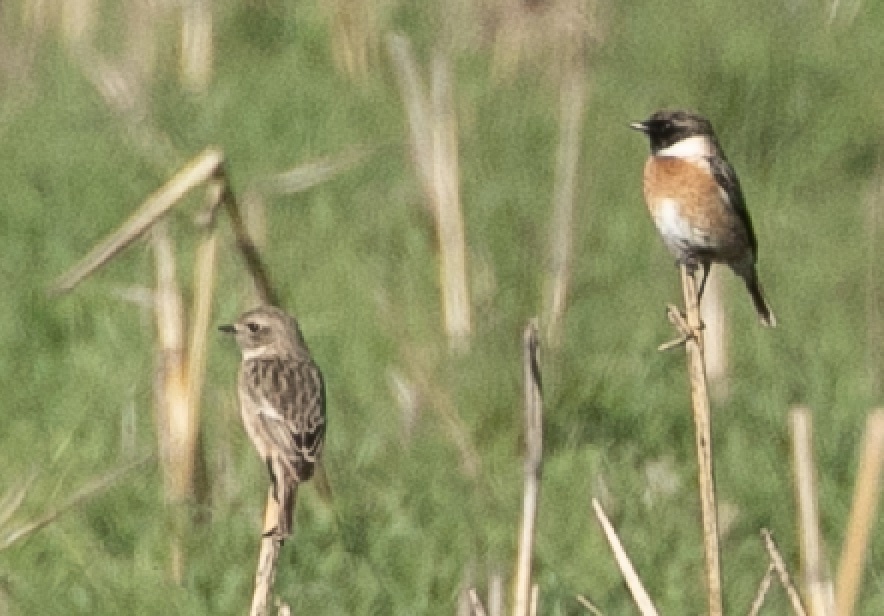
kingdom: Animalia
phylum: Chordata
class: Aves
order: Passeriformes
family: Muscicapidae
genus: Saxicola
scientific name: Saxicola rubicola
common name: European stonechat
